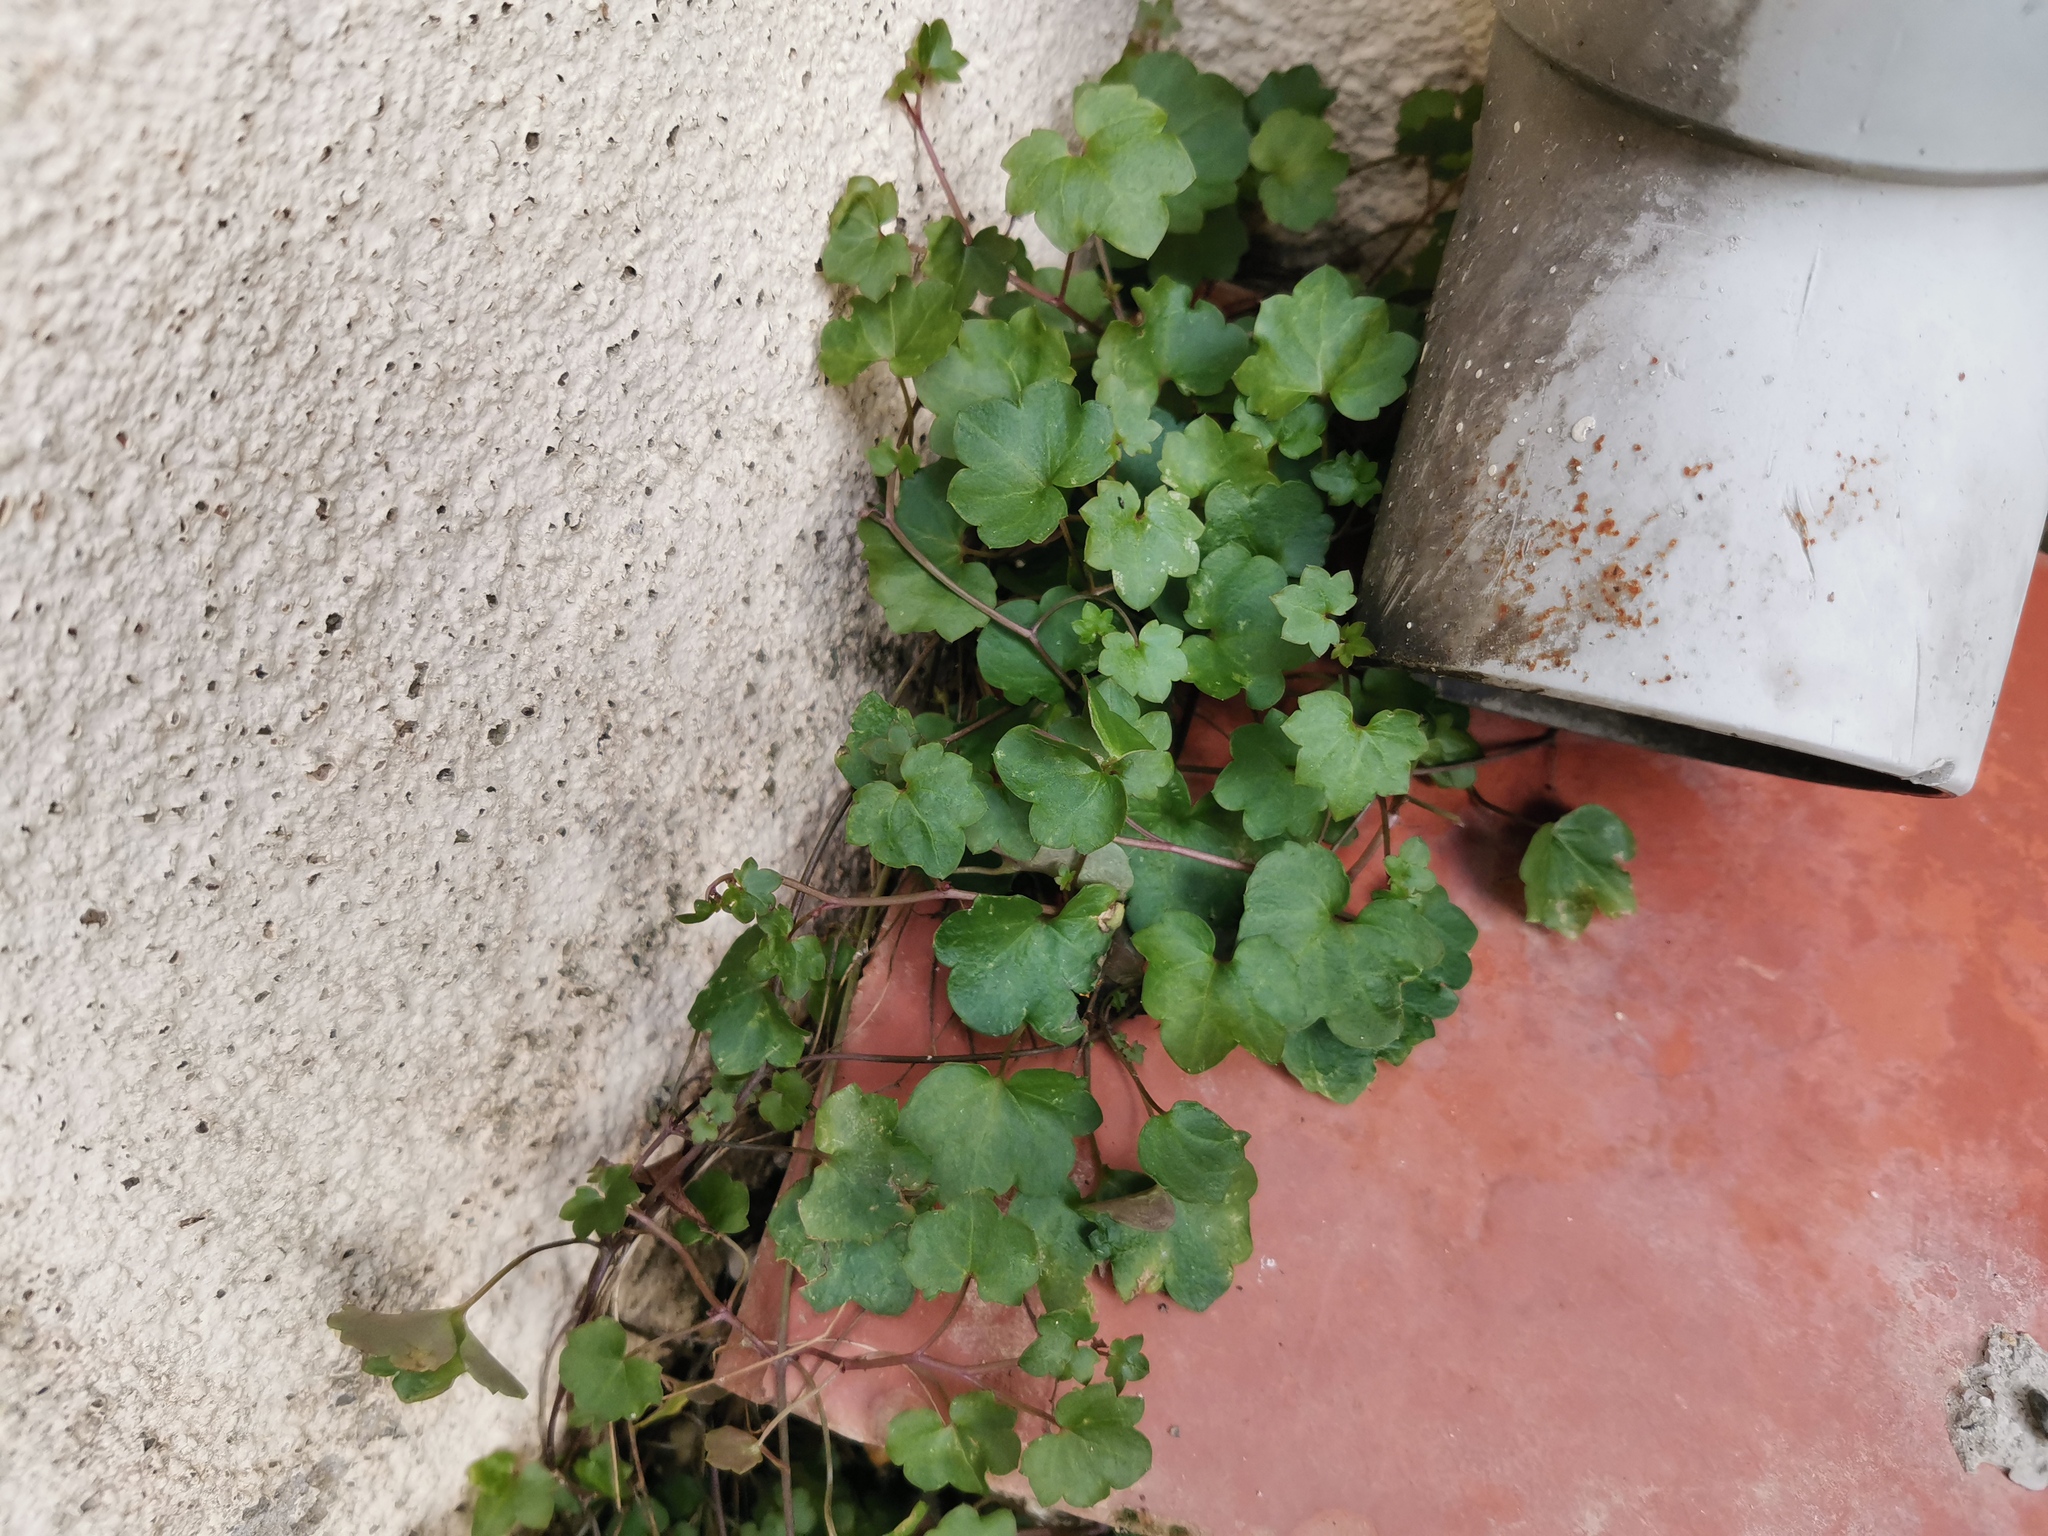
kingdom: Plantae
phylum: Tracheophyta
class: Magnoliopsida
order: Lamiales
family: Plantaginaceae
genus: Cymbalaria
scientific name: Cymbalaria muralis
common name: Ivy-leaved toadflax
